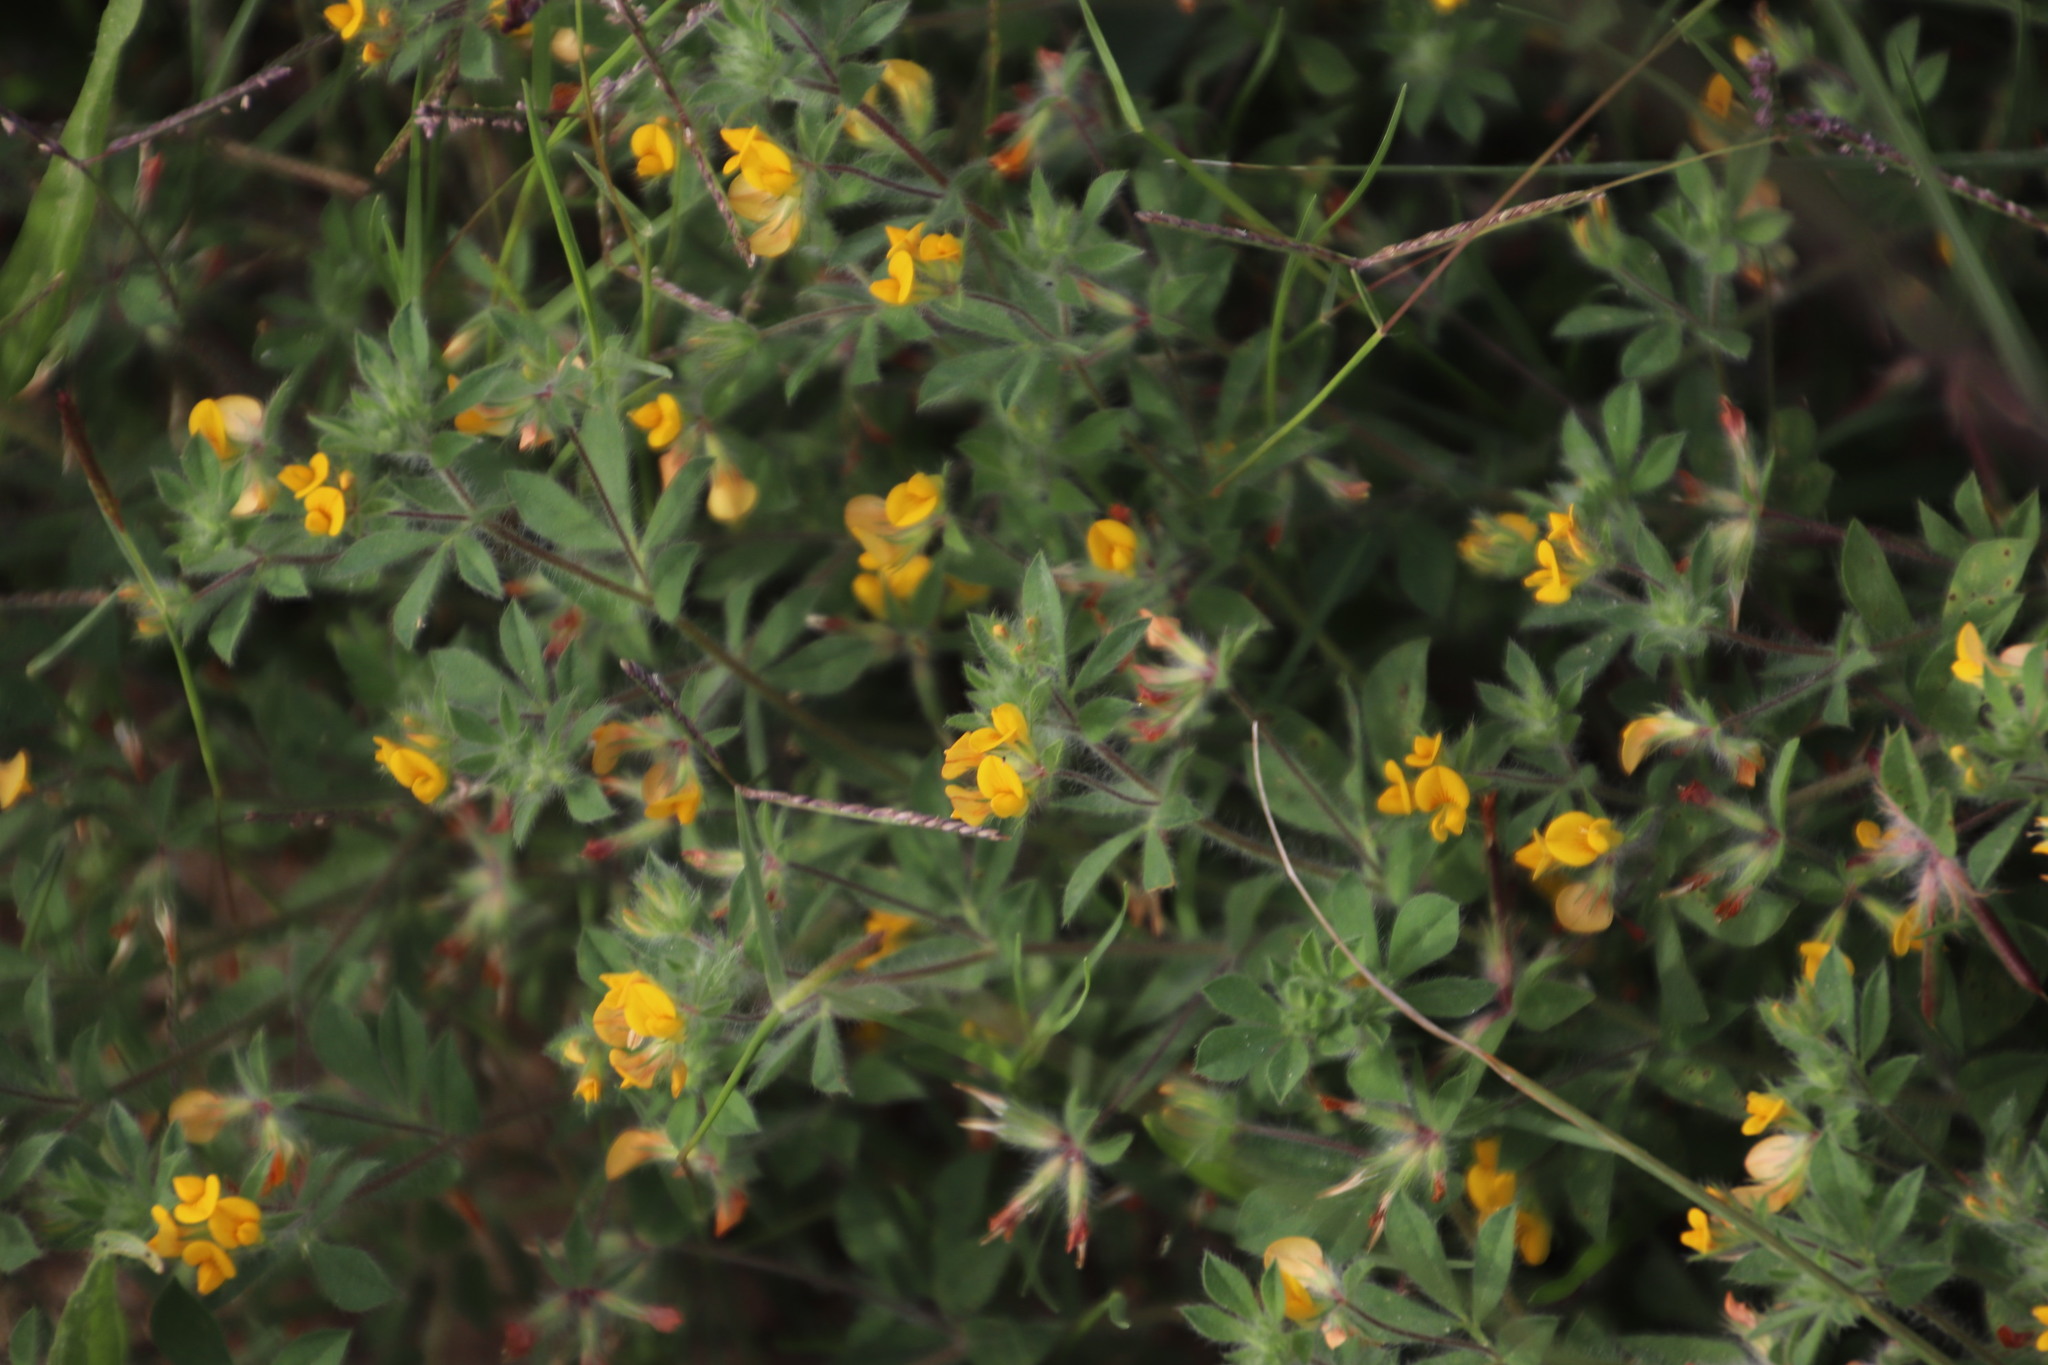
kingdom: Plantae
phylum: Tracheophyta
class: Magnoliopsida
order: Fabales
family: Fabaceae
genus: Lotus
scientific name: Lotus subbiflorus
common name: Hairy bird's-foot trefoil
